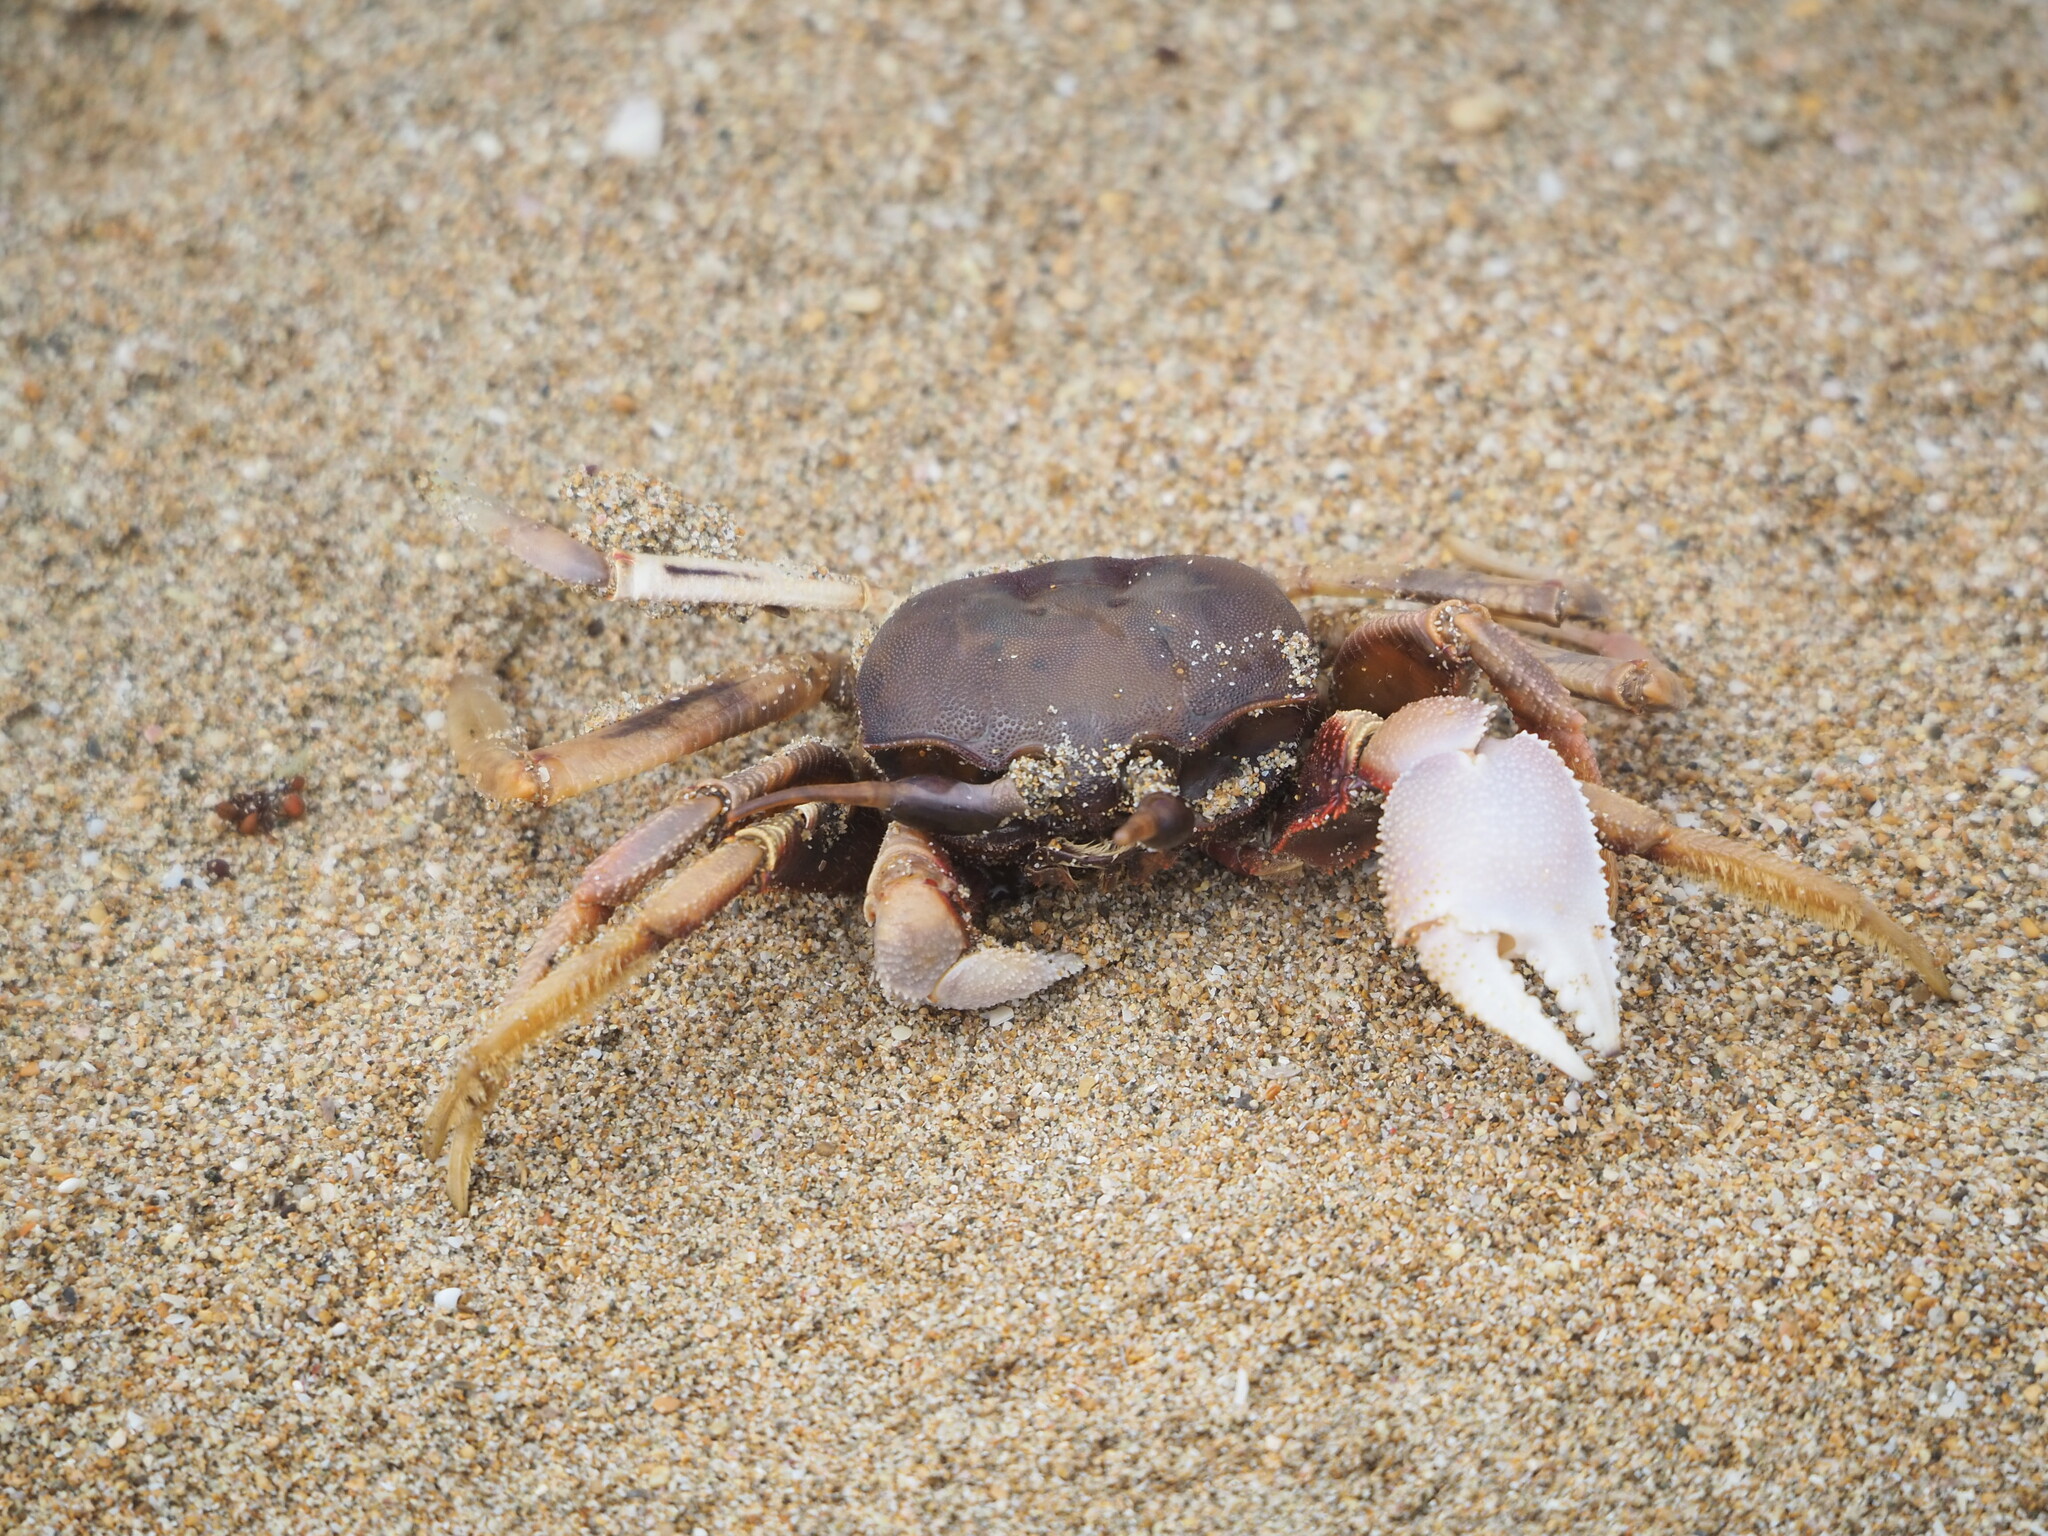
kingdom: Animalia
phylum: Arthropoda
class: Malacostraca
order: Decapoda
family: Ocypodidae
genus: Ocypode
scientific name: Ocypode ceratophthalmus
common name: Indo-pacific ghost crab
